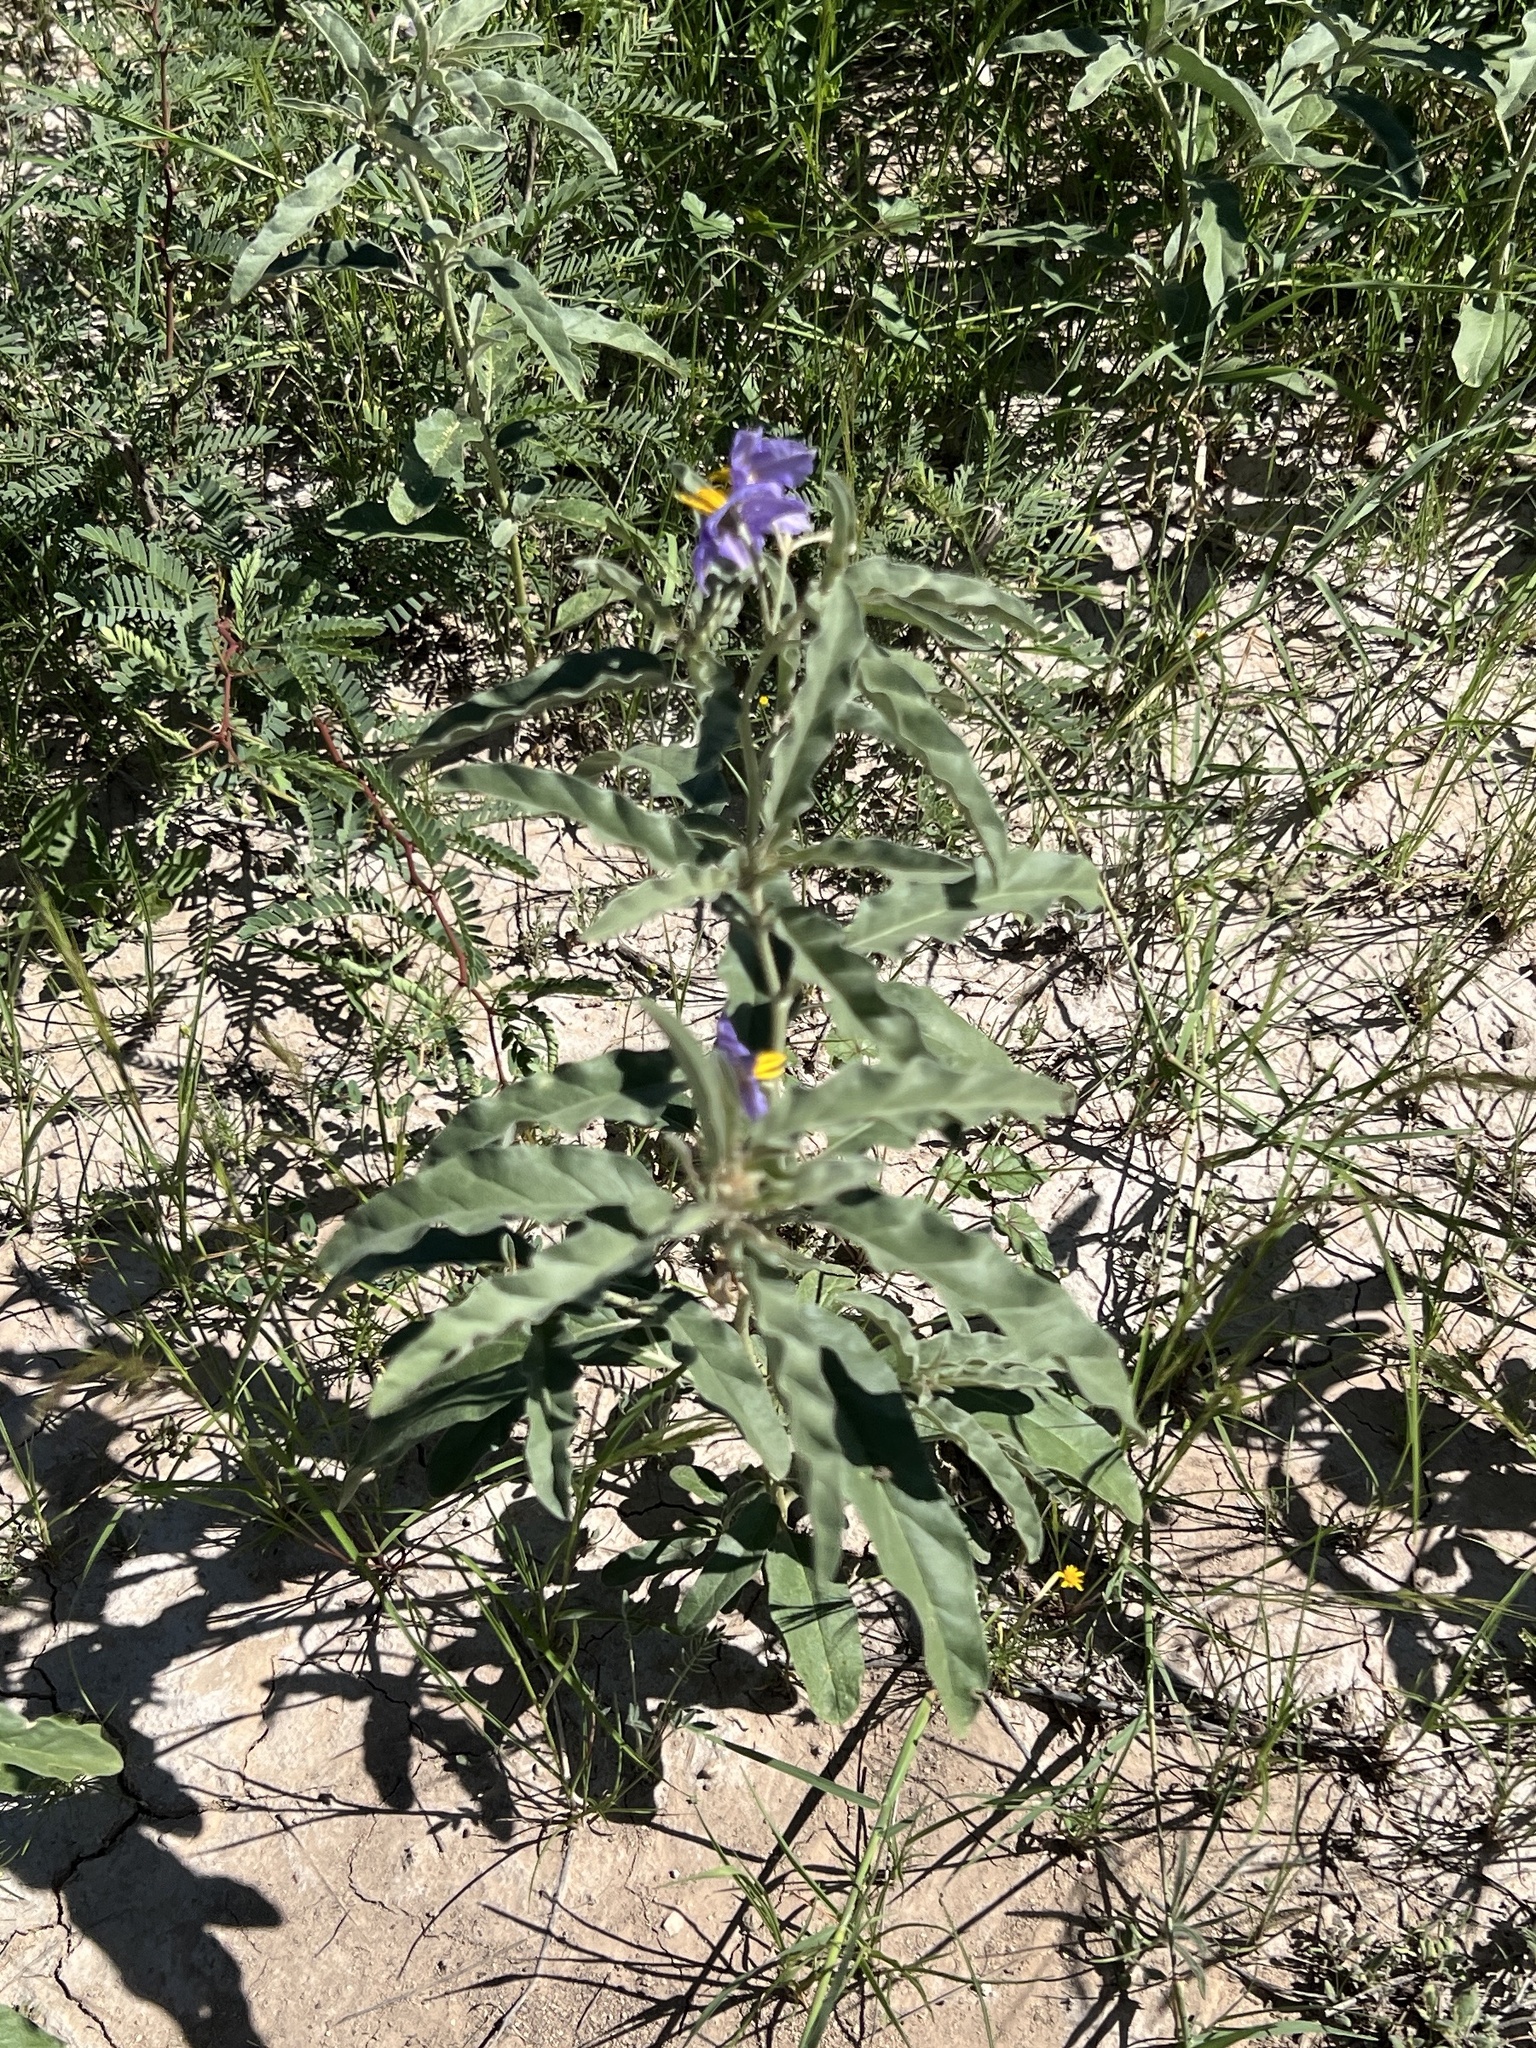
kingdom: Plantae
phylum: Tracheophyta
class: Magnoliopsida
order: Solanales
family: Solanaceae
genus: Solanum
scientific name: Solanum elaeagnifolium
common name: Silverleaf nightshade
